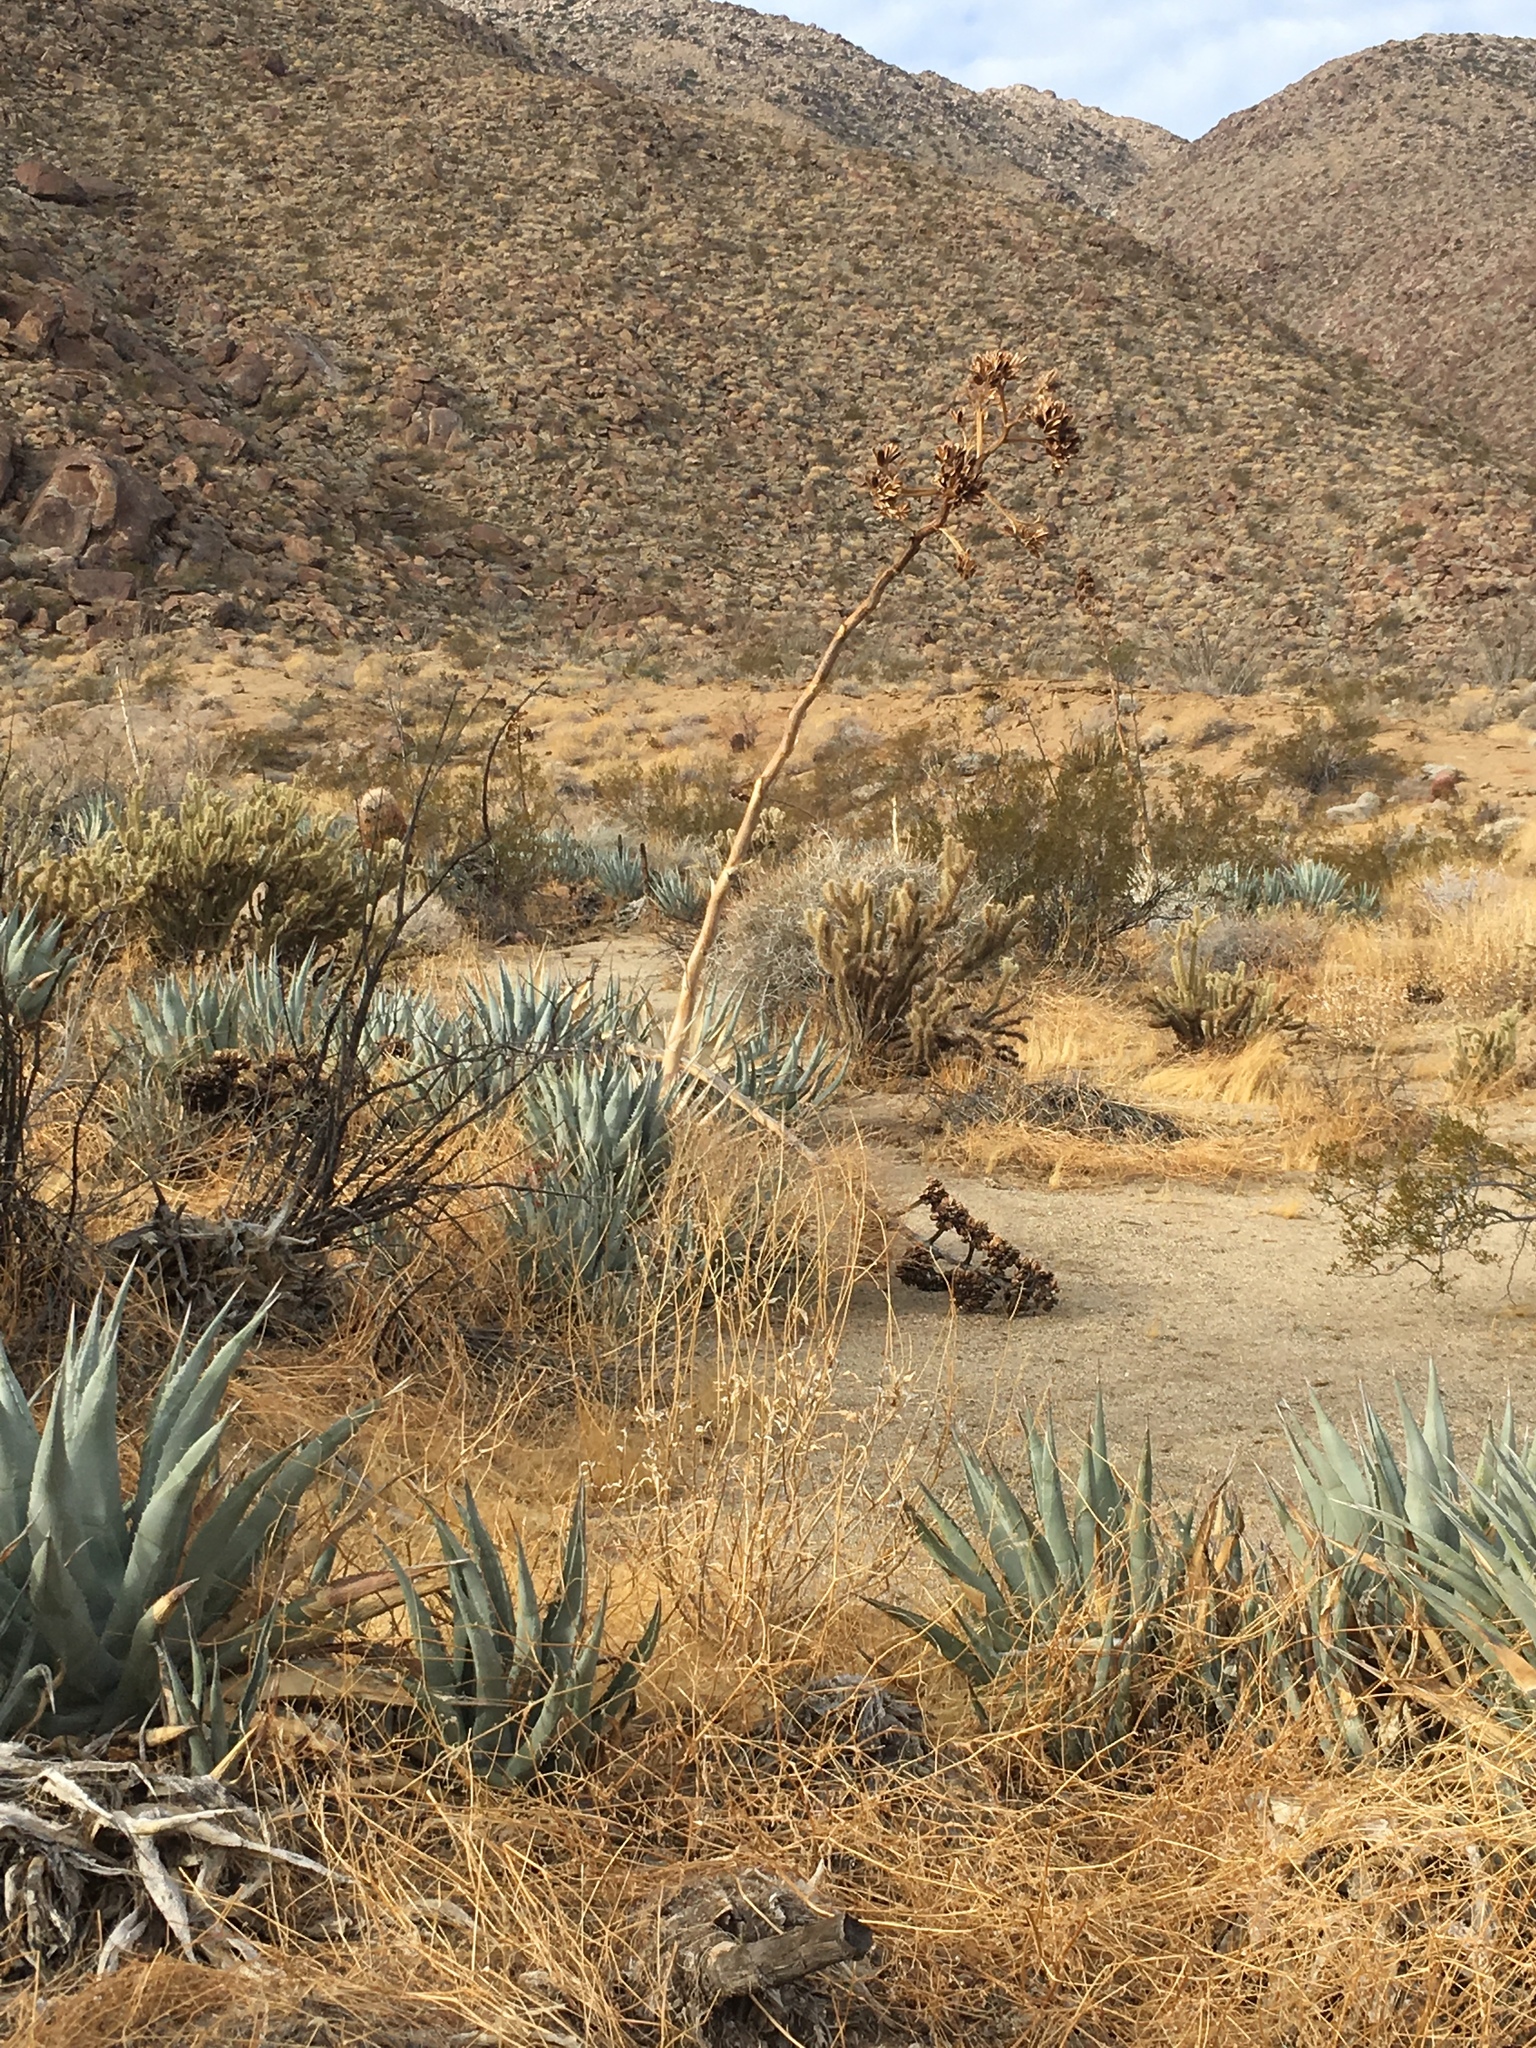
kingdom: Plantae
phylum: Tracheophyta
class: Liliopsida
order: Asparagales
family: Asparagaceae
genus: Agave
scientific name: Agave deserti
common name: Desert agave
